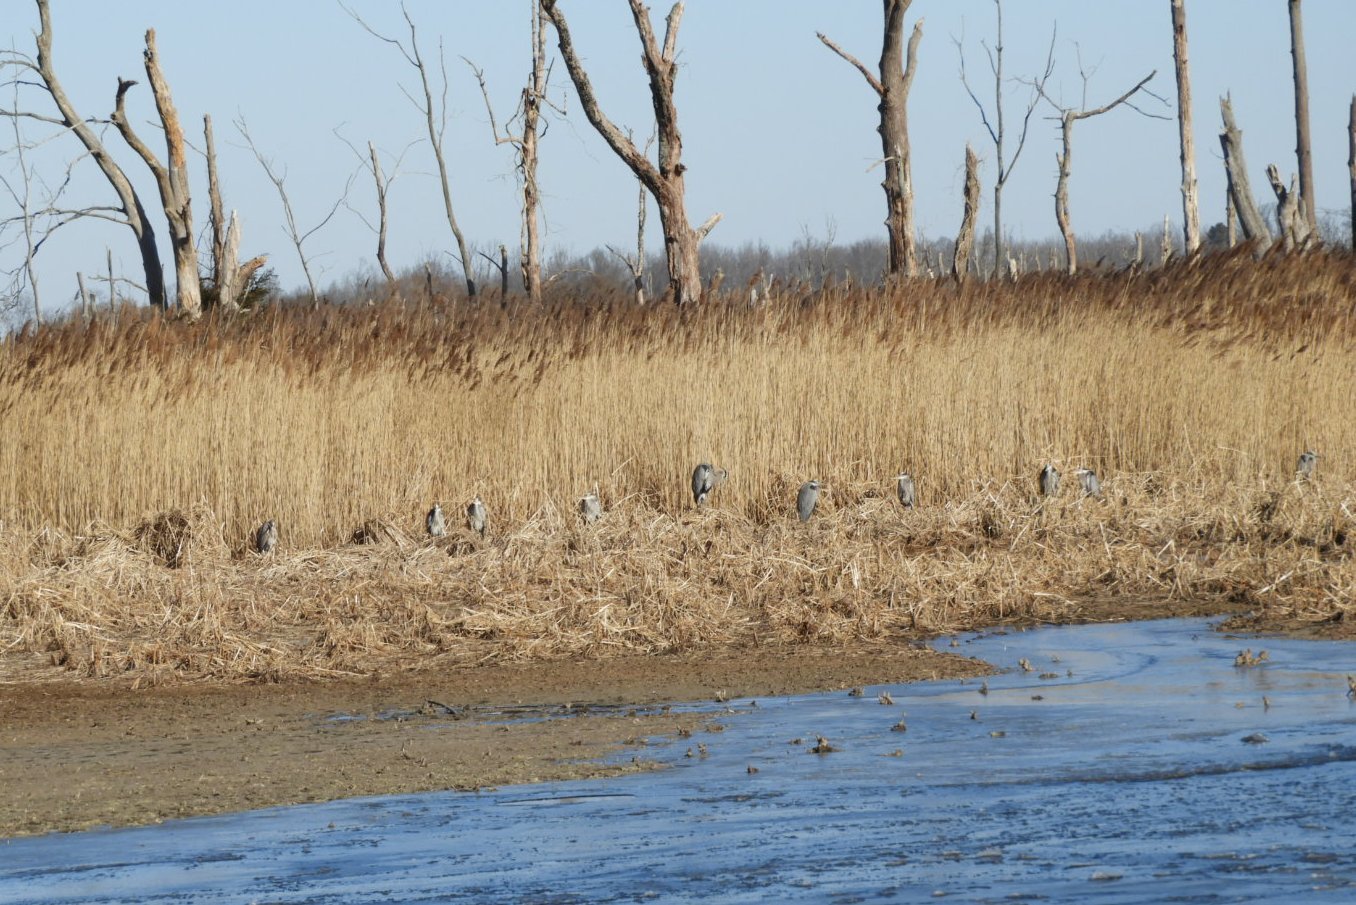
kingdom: Animalia
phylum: Chordata
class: Aves
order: Pelecaniformes
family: Ardeidae
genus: Ardea
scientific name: Ardea herodias
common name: Great blue heron
